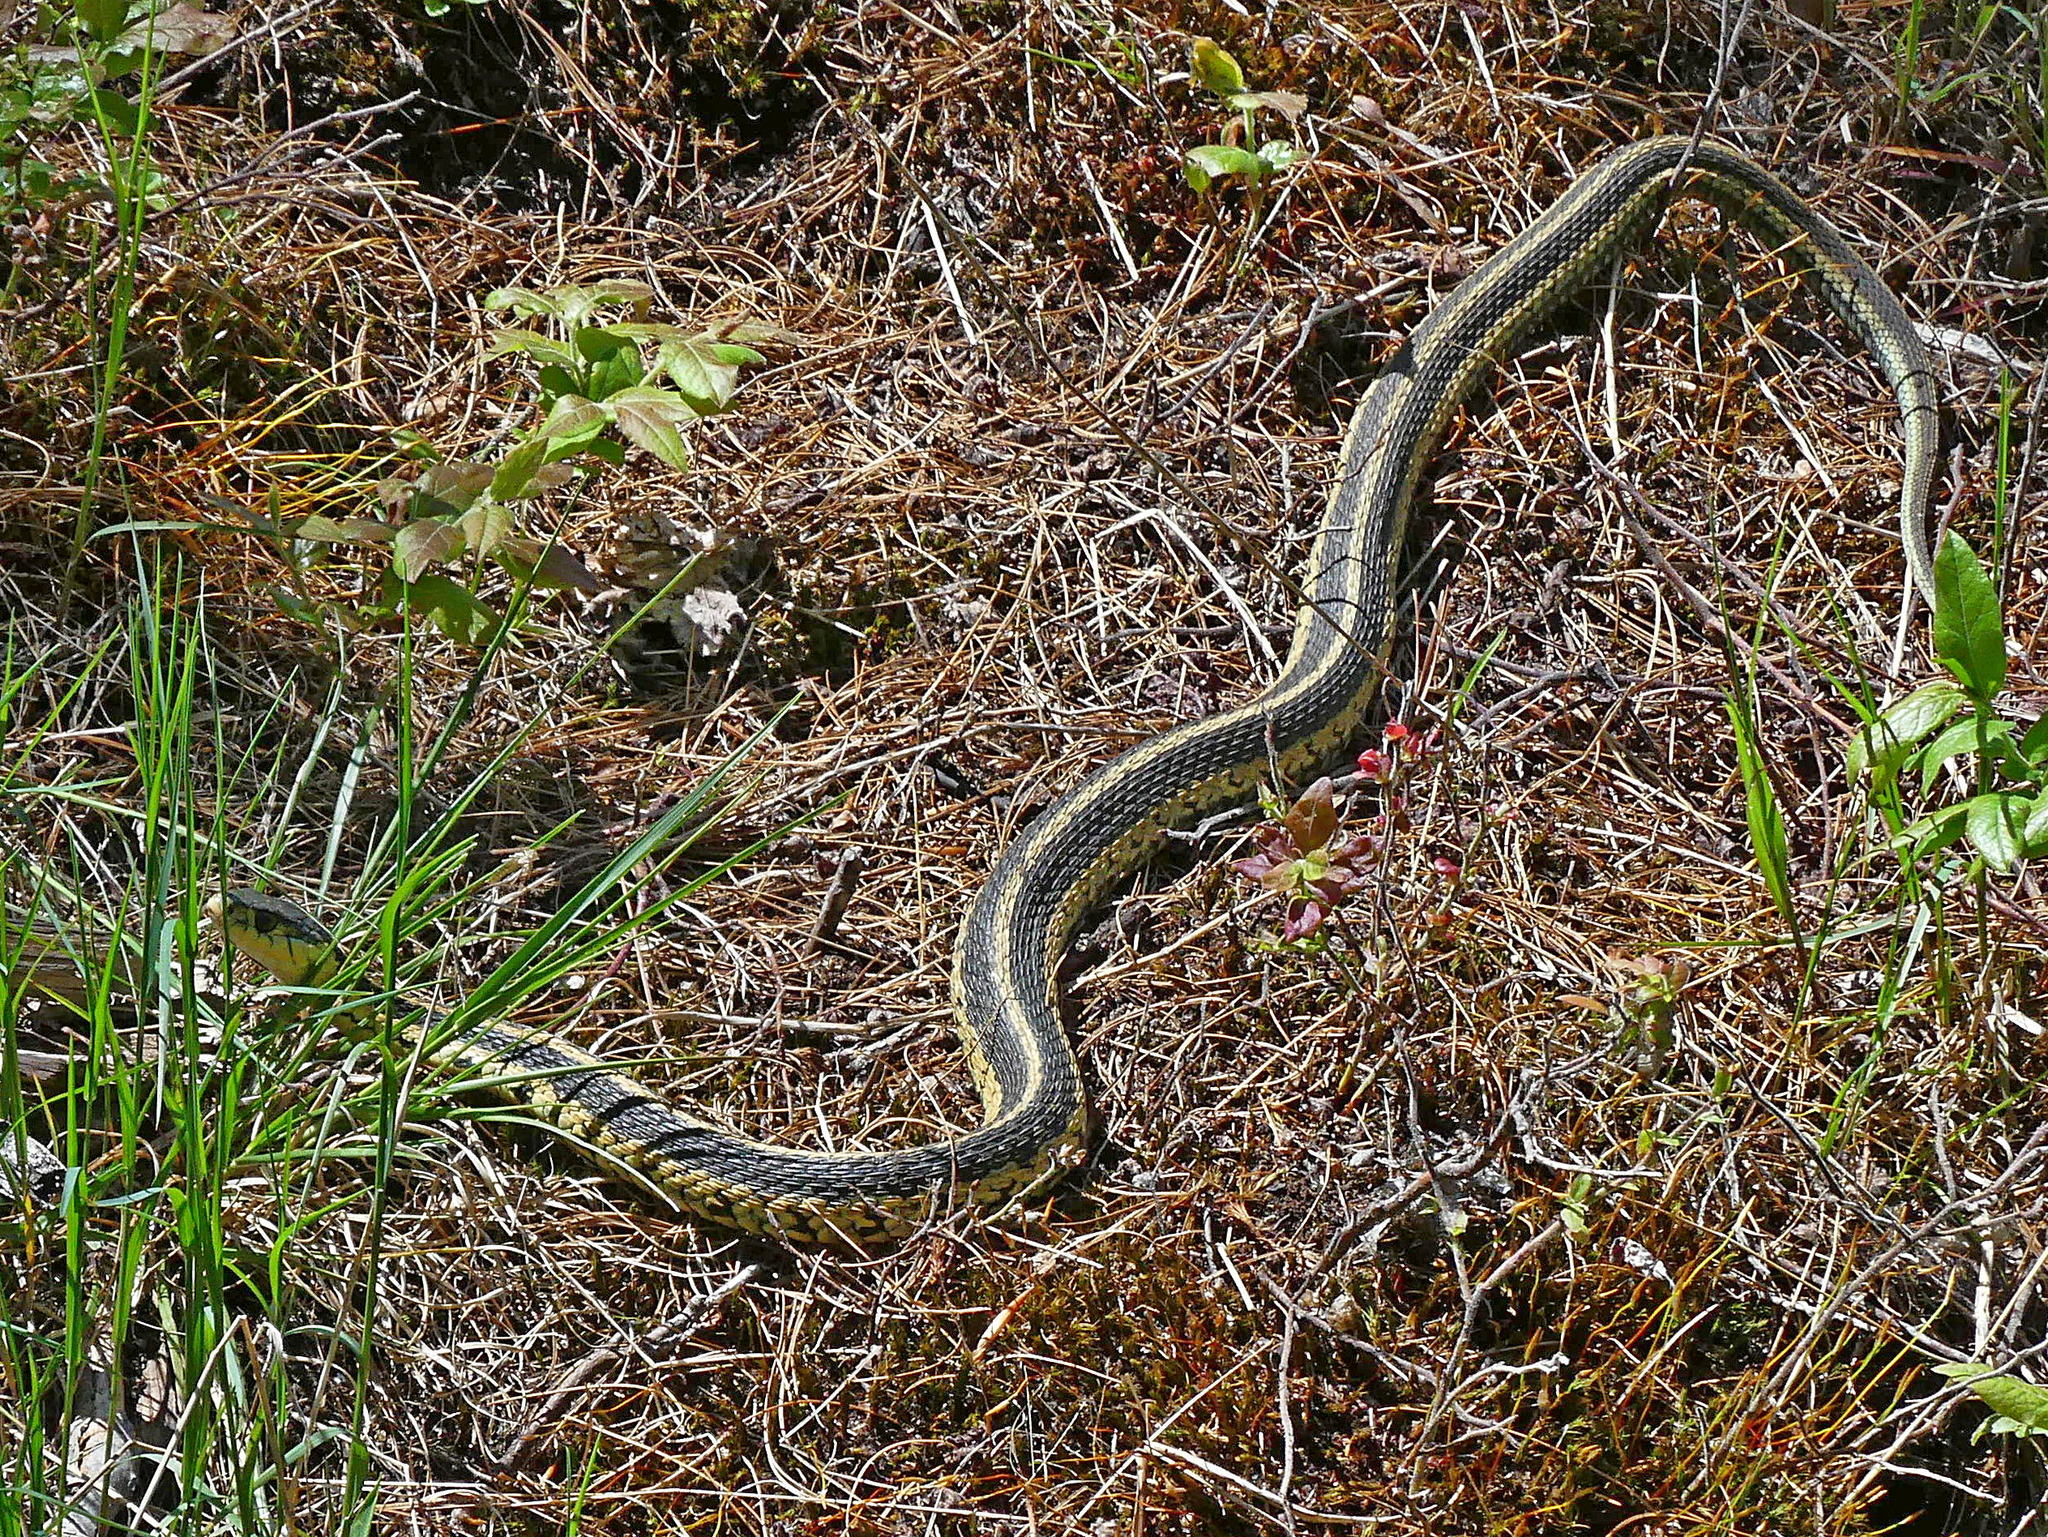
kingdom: Animalia
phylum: Chordata
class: Squamata
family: Colubridae
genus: Thamnophis
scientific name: Thamnophis sirtalis
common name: Common garter snake
